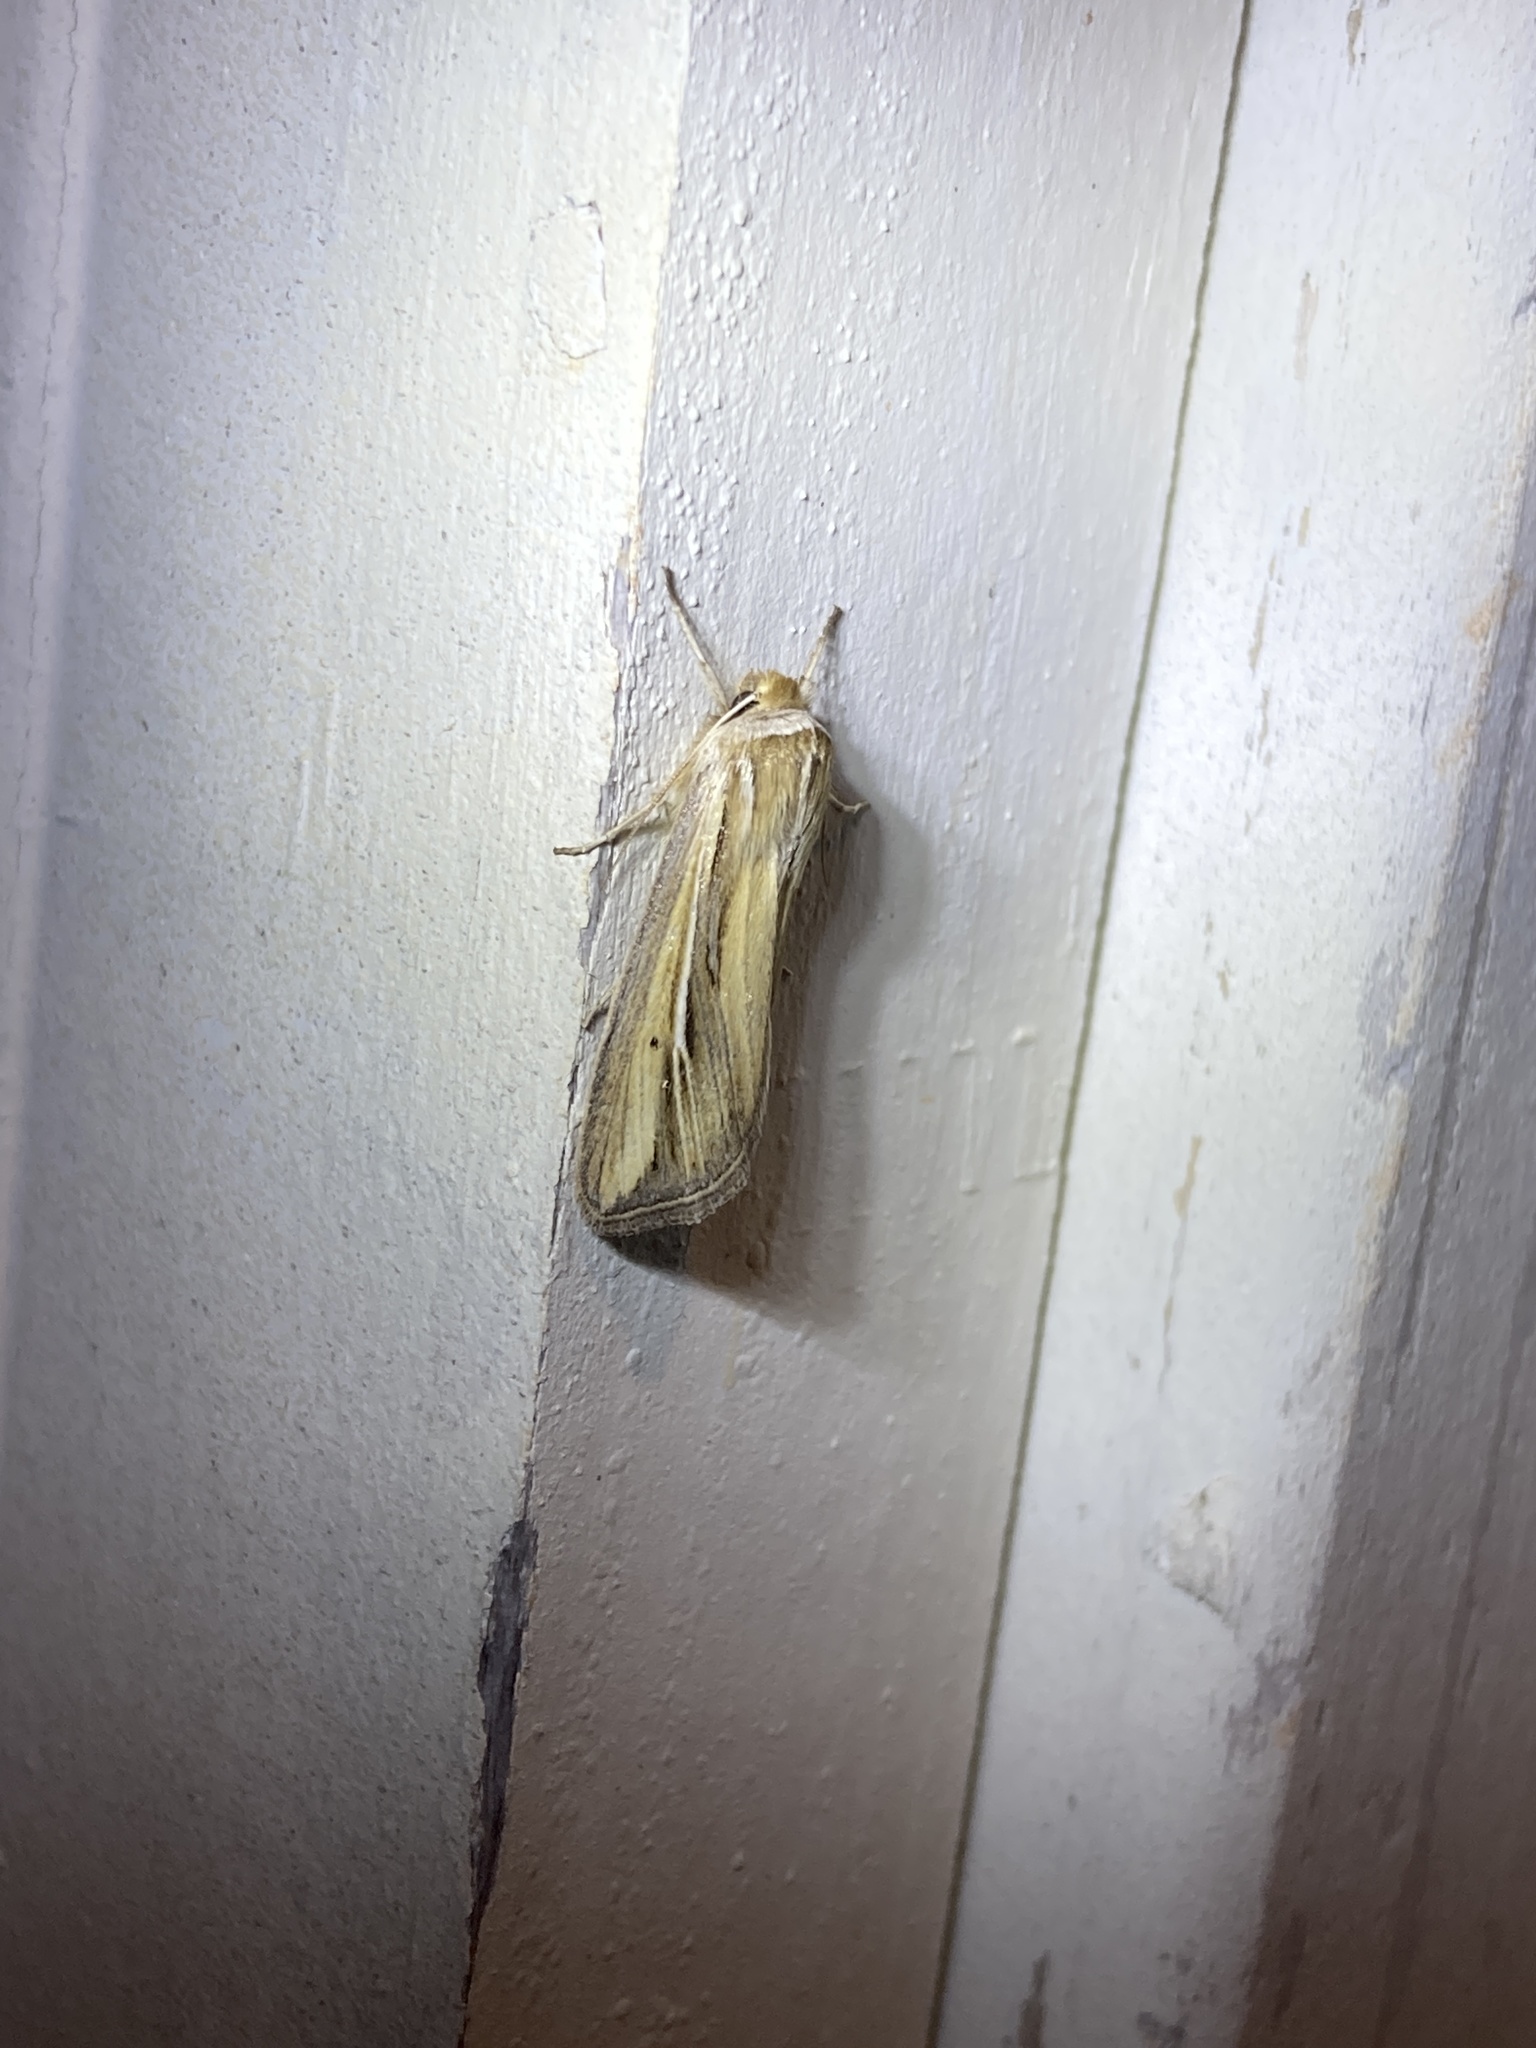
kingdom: Animalia
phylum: Arthropoda
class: Insecta
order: Lepidoptera
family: Noctuidae
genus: Dargida
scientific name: Dargida diffusa
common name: Wheat head armyworm
